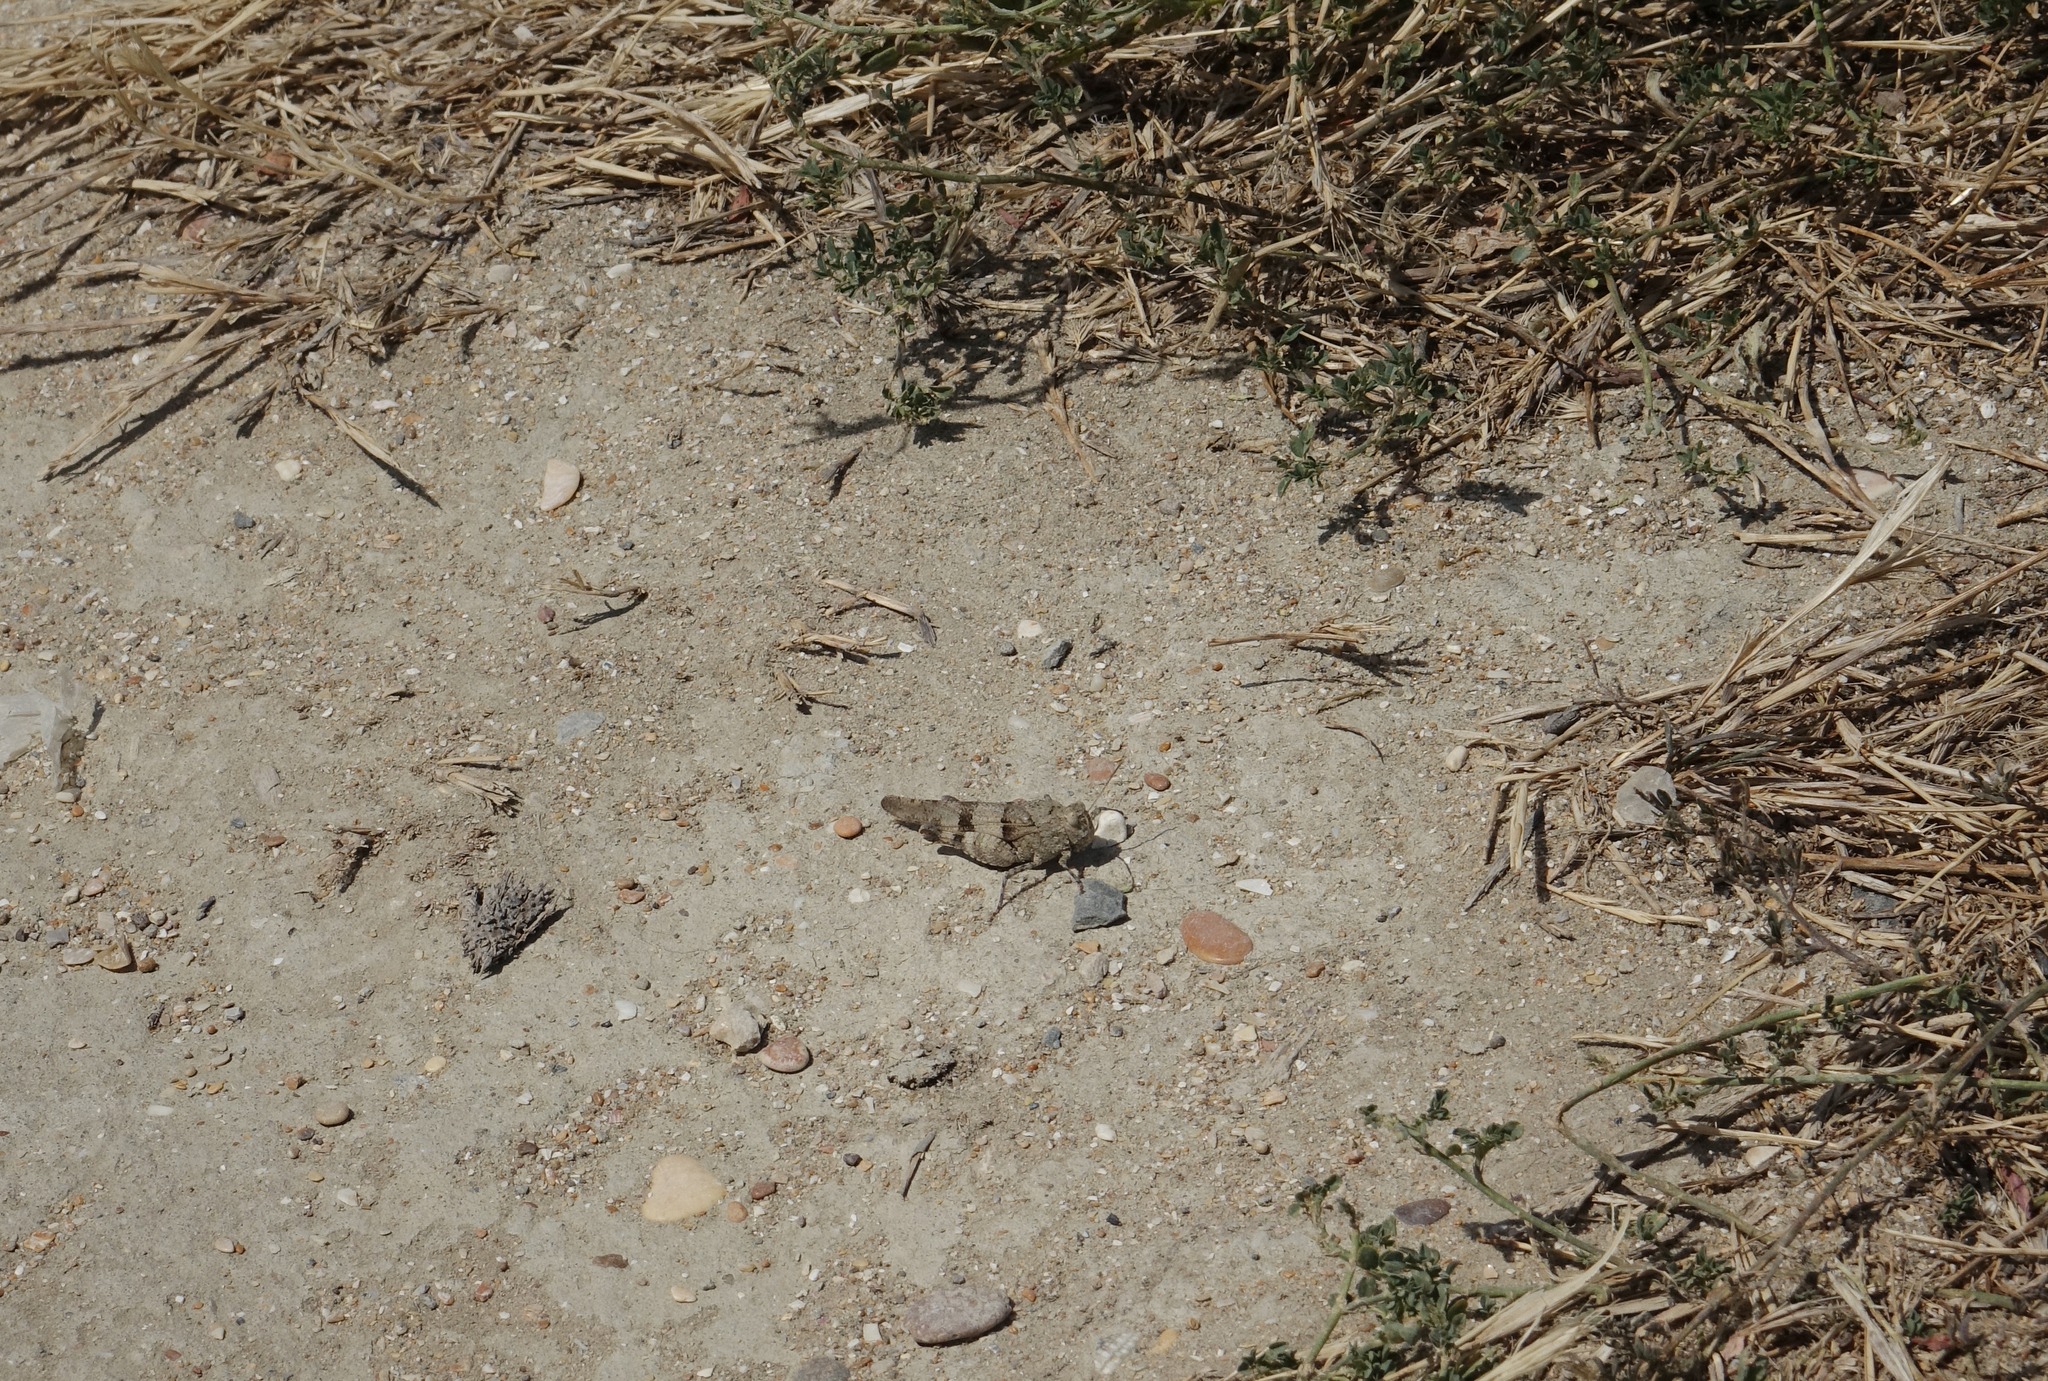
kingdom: Animalia
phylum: Arthropoda
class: Insecta
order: Orthoptera
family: Acrididae
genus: Oedipoda
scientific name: Oedipoda caerulescens
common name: Blue-winged grasshopper
